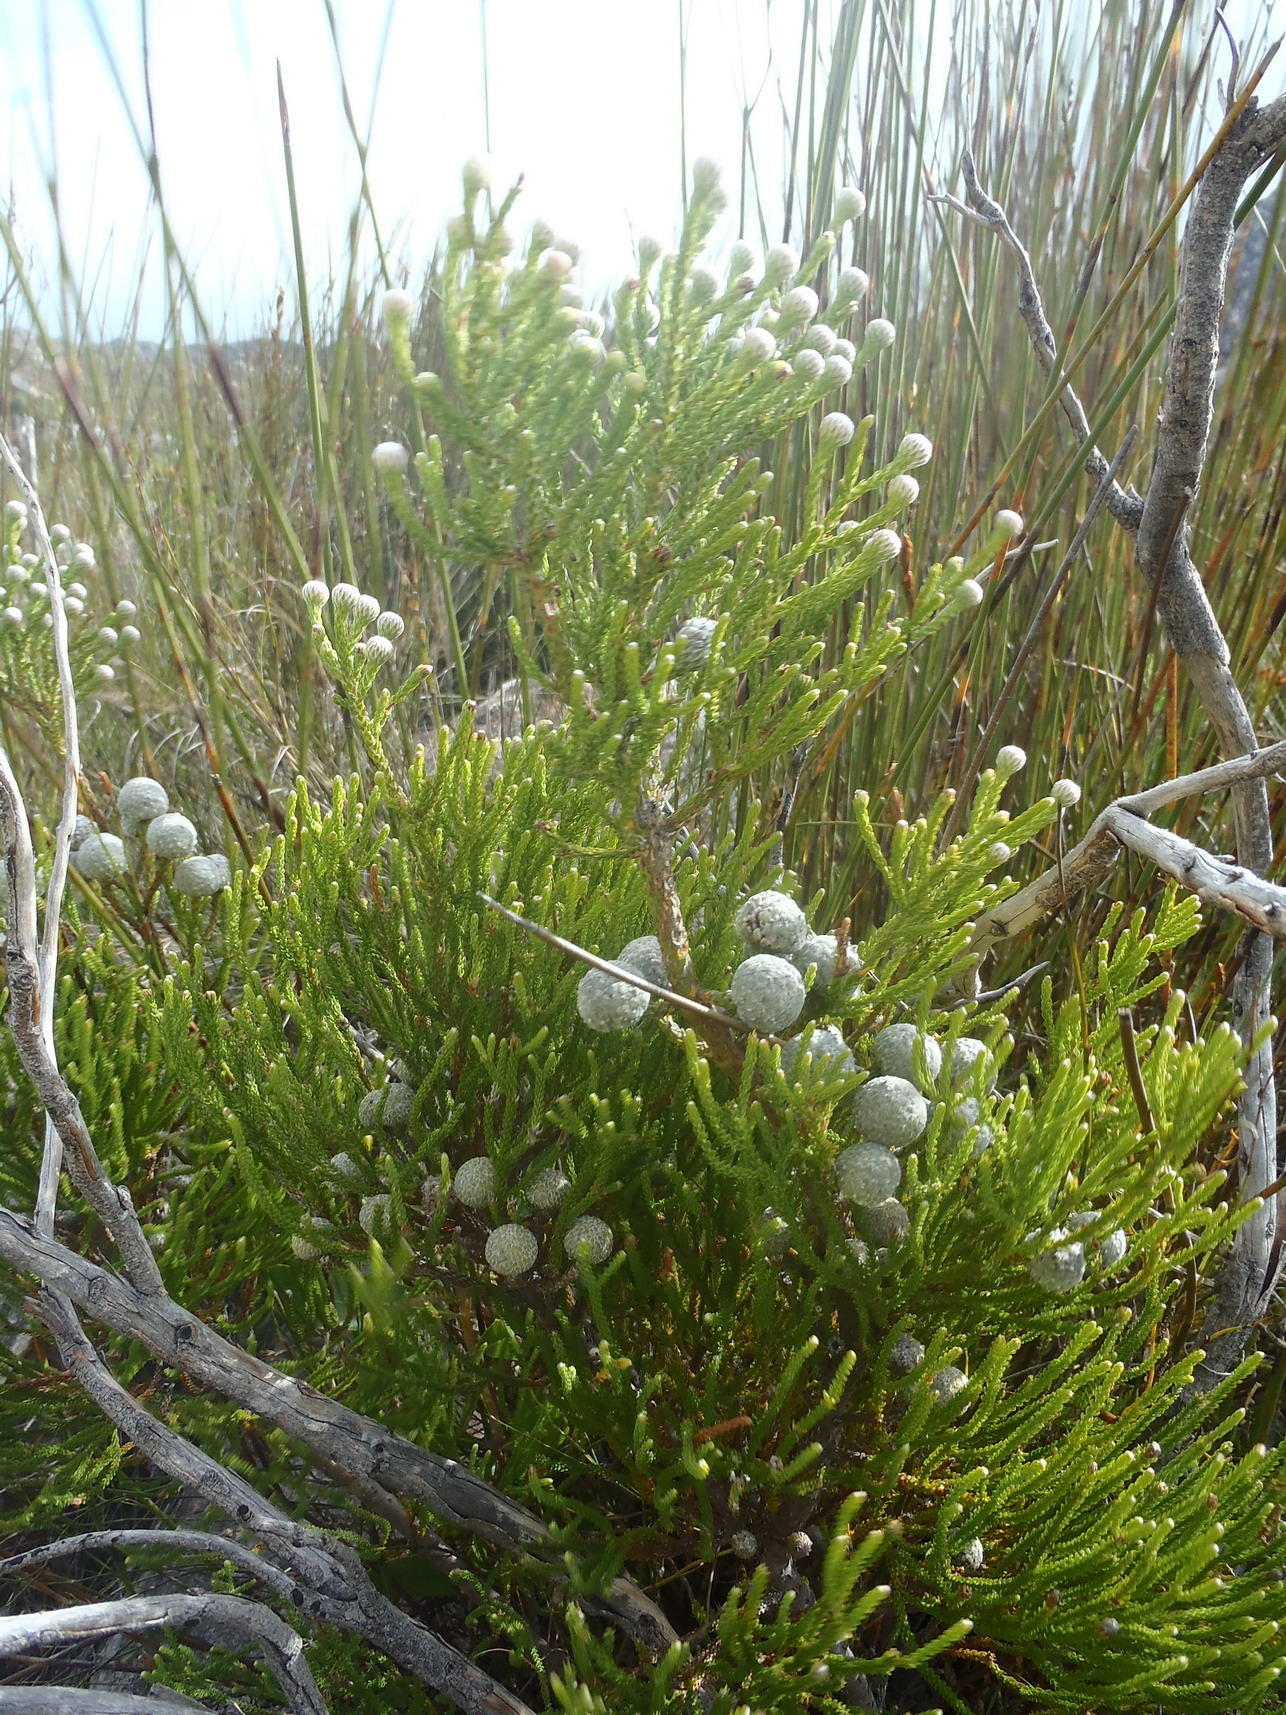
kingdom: Plantae
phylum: Tracheophyta
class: Magnoliopsida
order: Bruniales
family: Bruniaceae
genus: Brunia
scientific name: Brunia noduliflora
